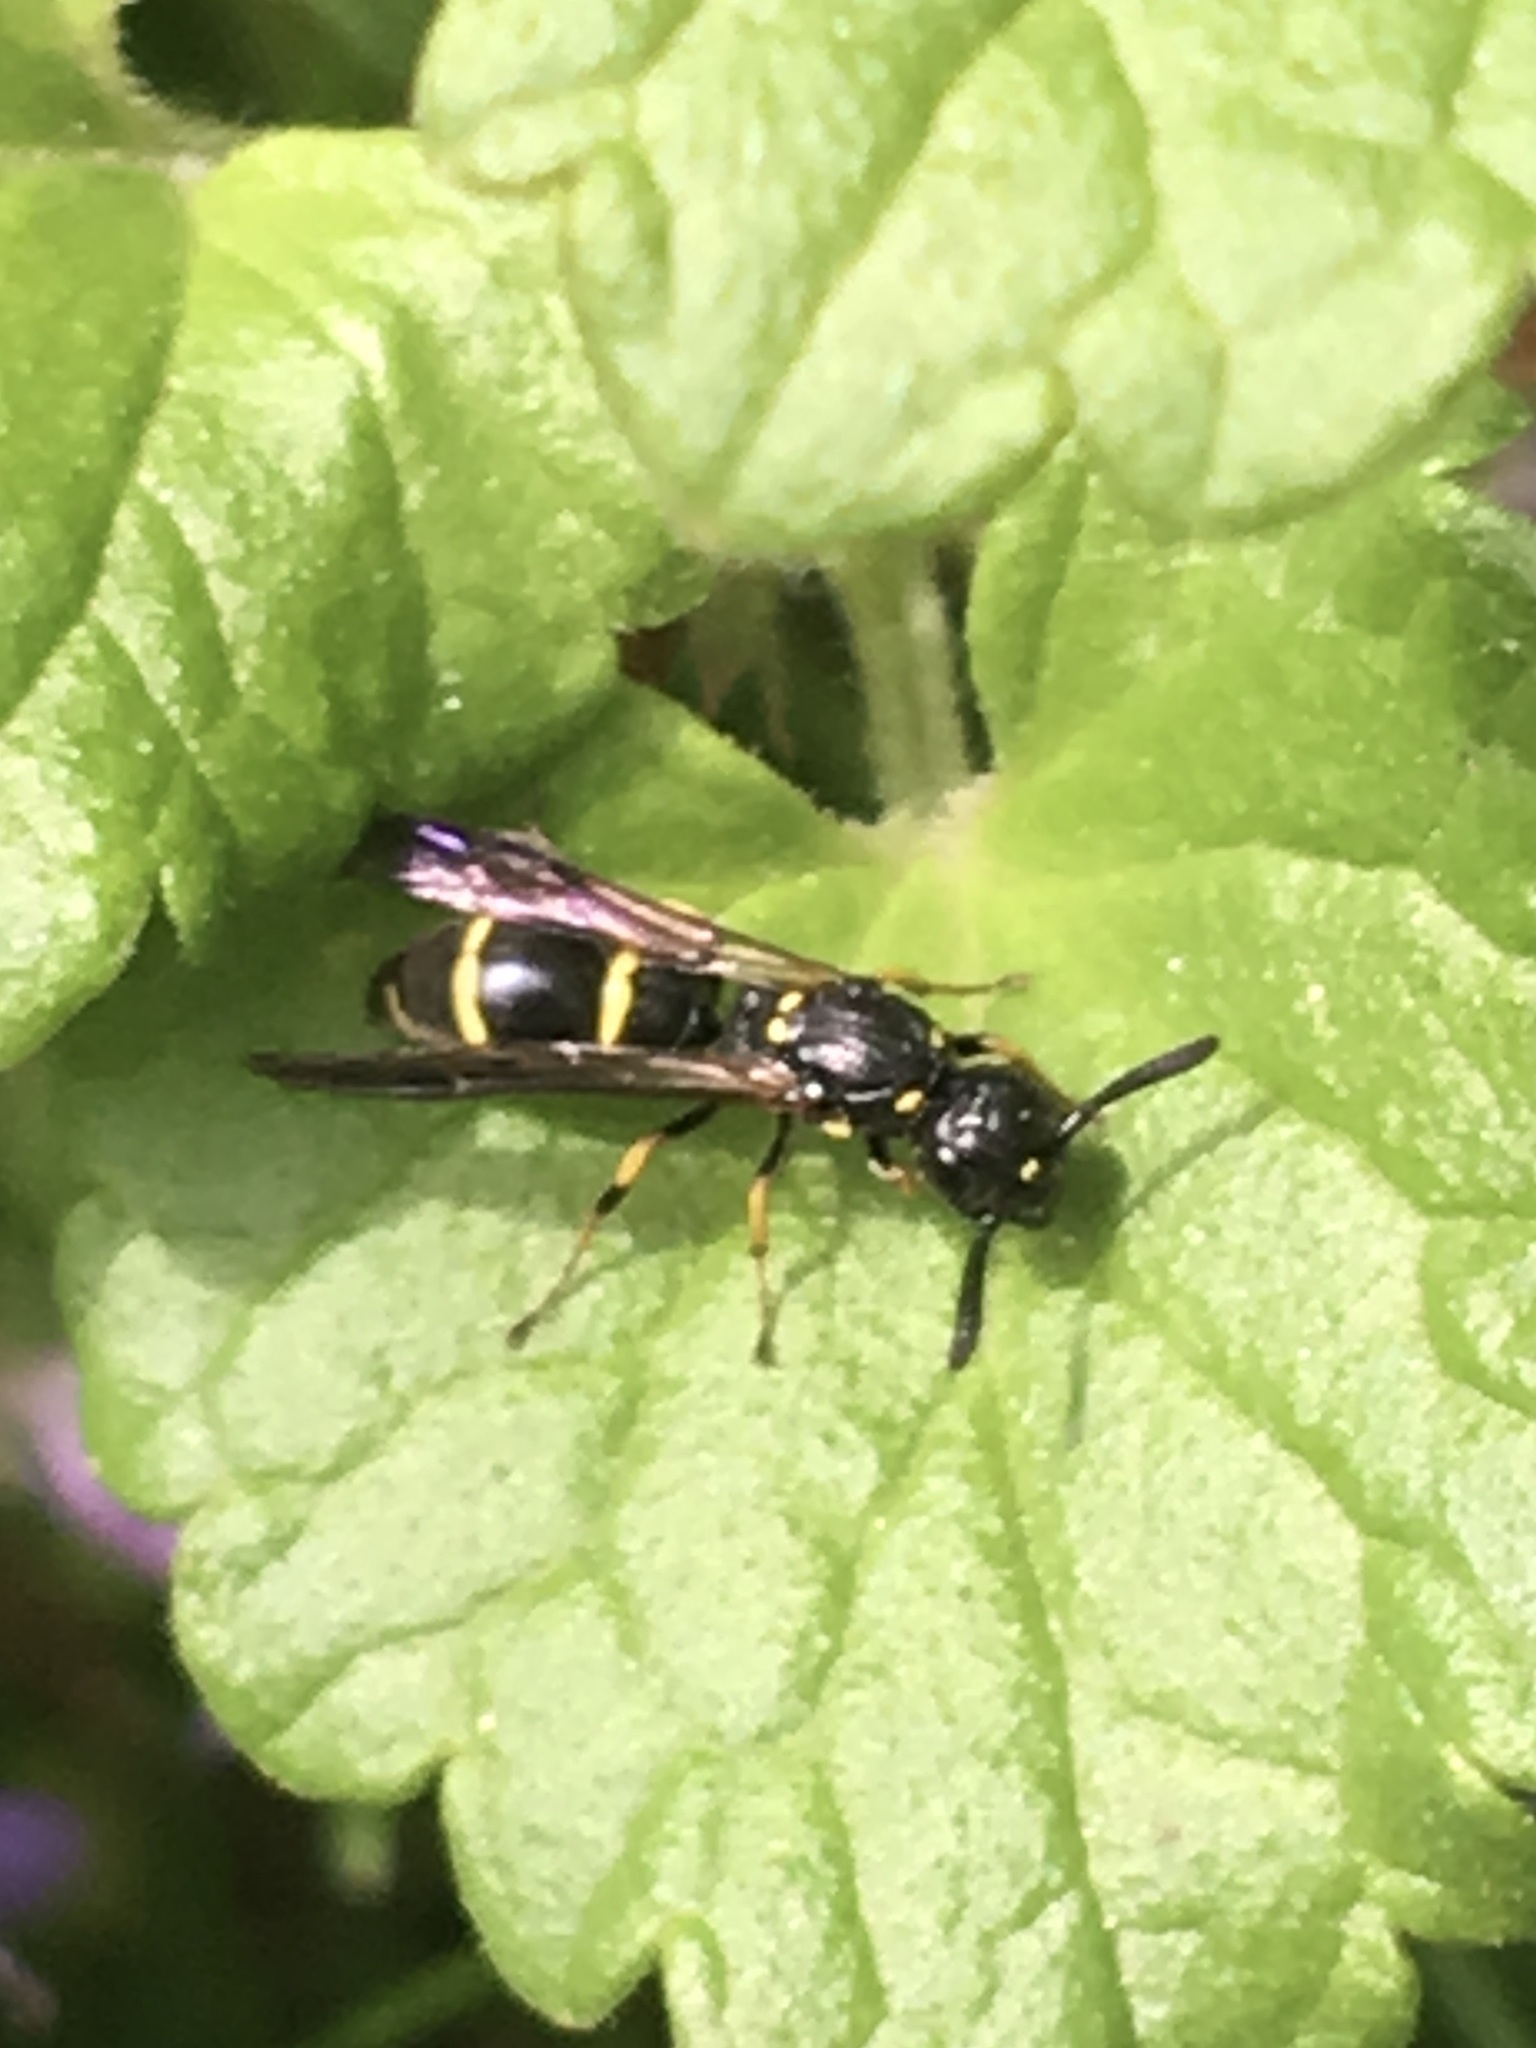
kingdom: Animalia
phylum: Arthropoda
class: Insecta
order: Hymenoptera
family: Eumenidae
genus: Symmorphus
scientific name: Symmorphus
